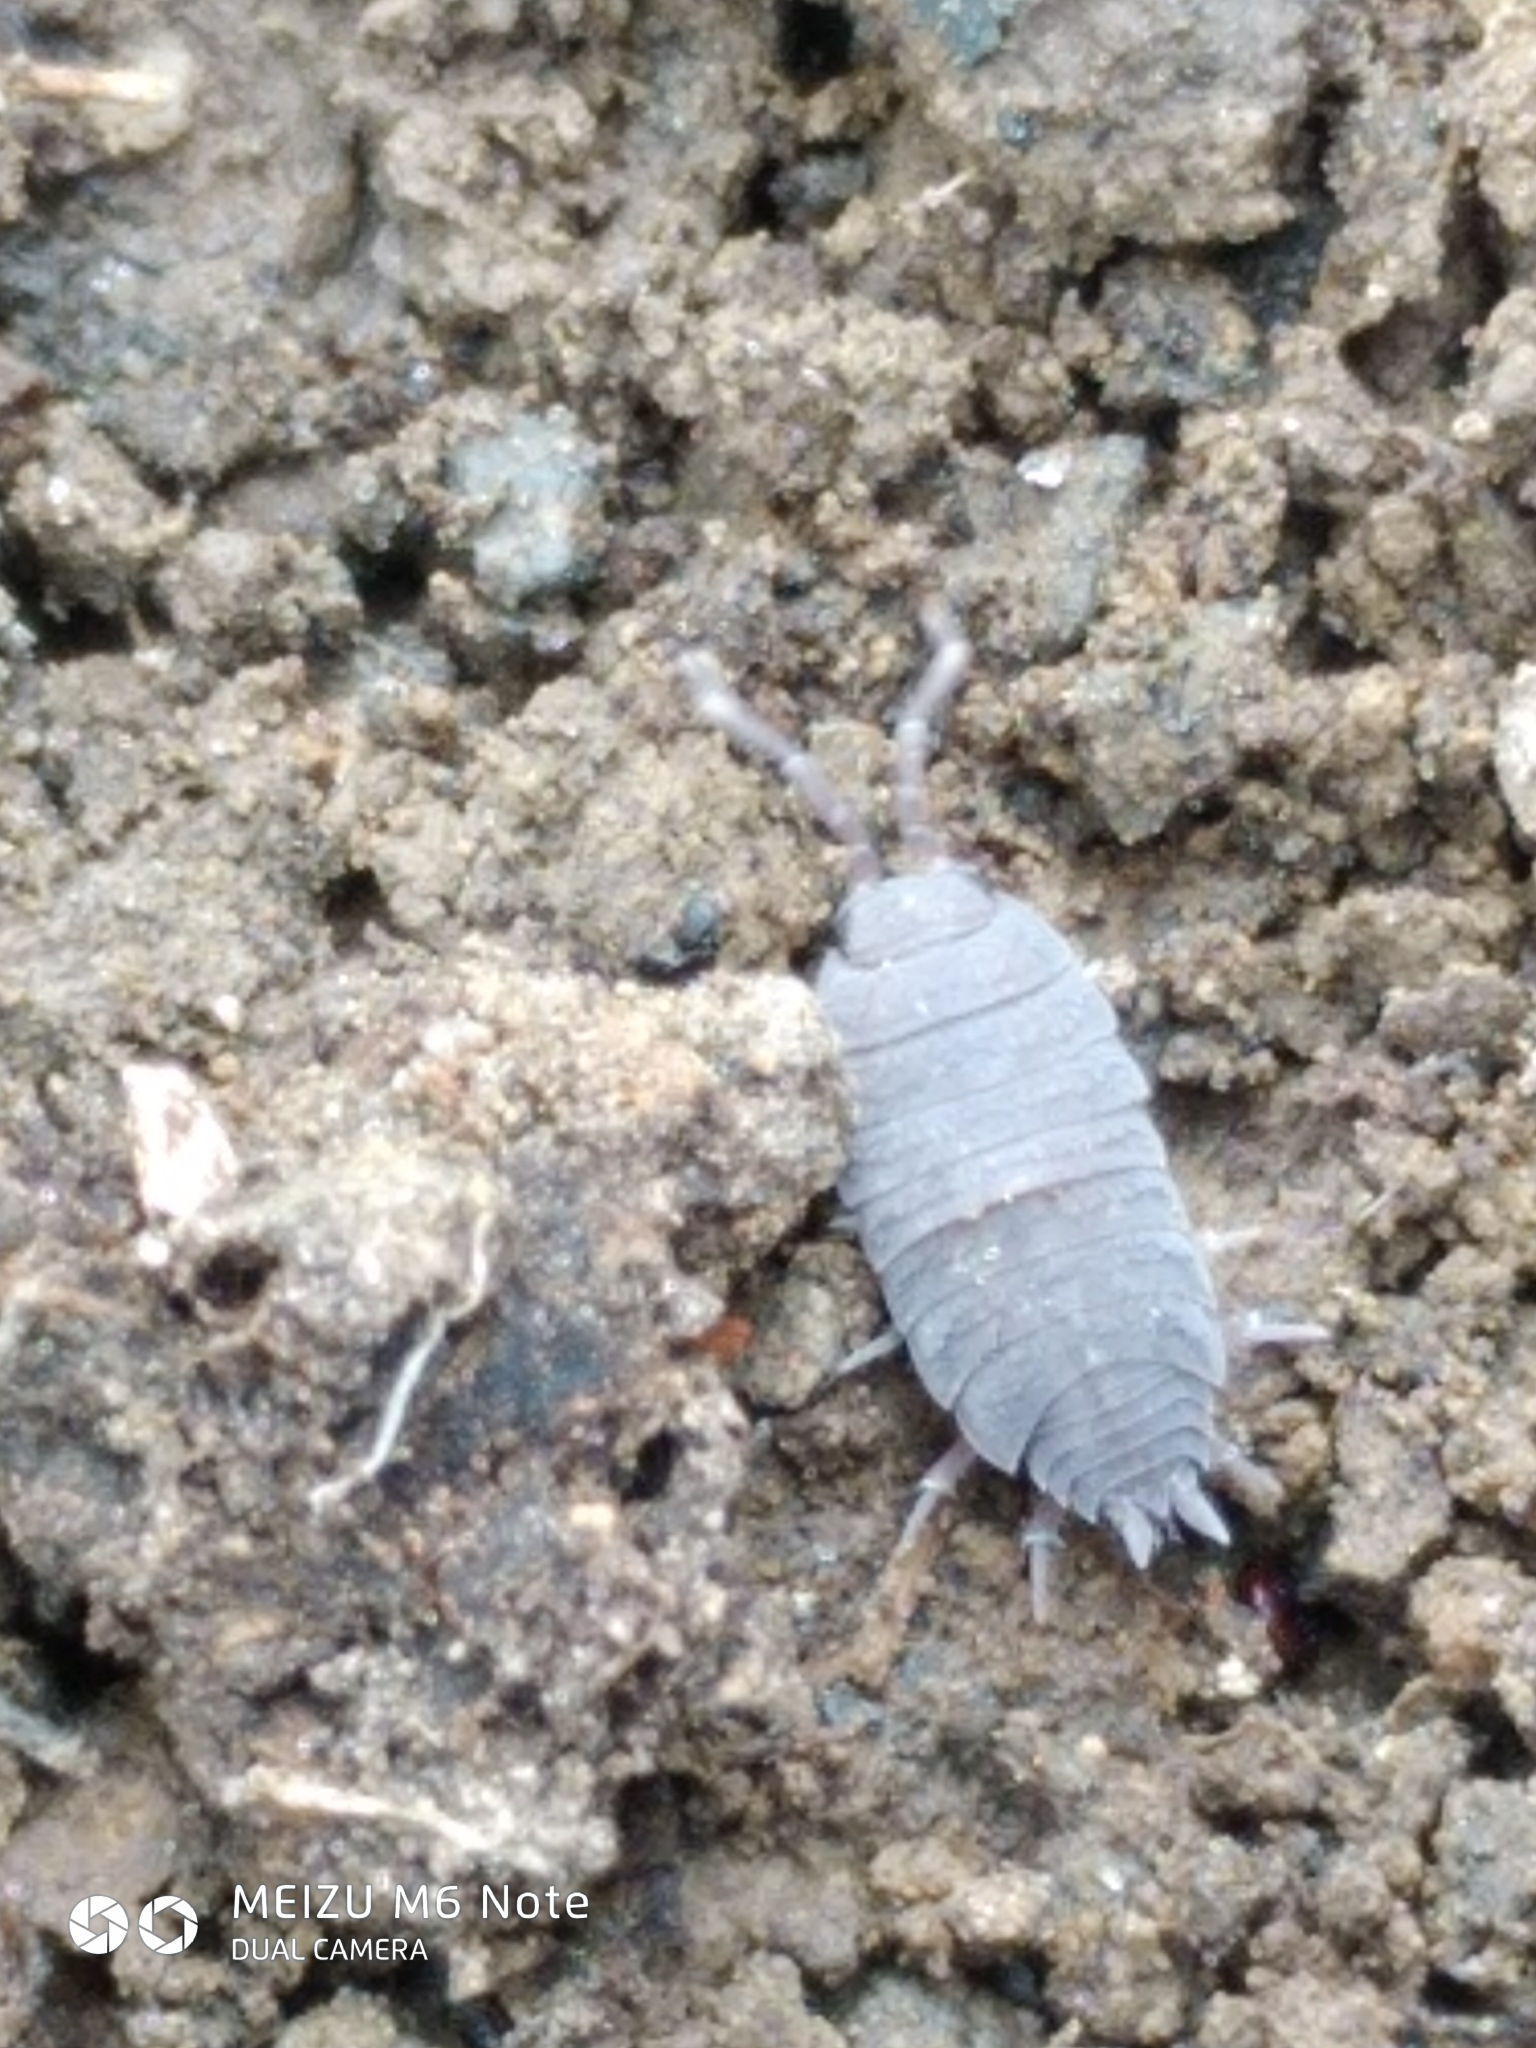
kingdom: Animalia
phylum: Arthropoda
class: Malacostraca
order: Isopoda
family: Porcellionidae
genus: Porcellionides
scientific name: Porcellionides pruinosus
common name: Plum woodlouse
